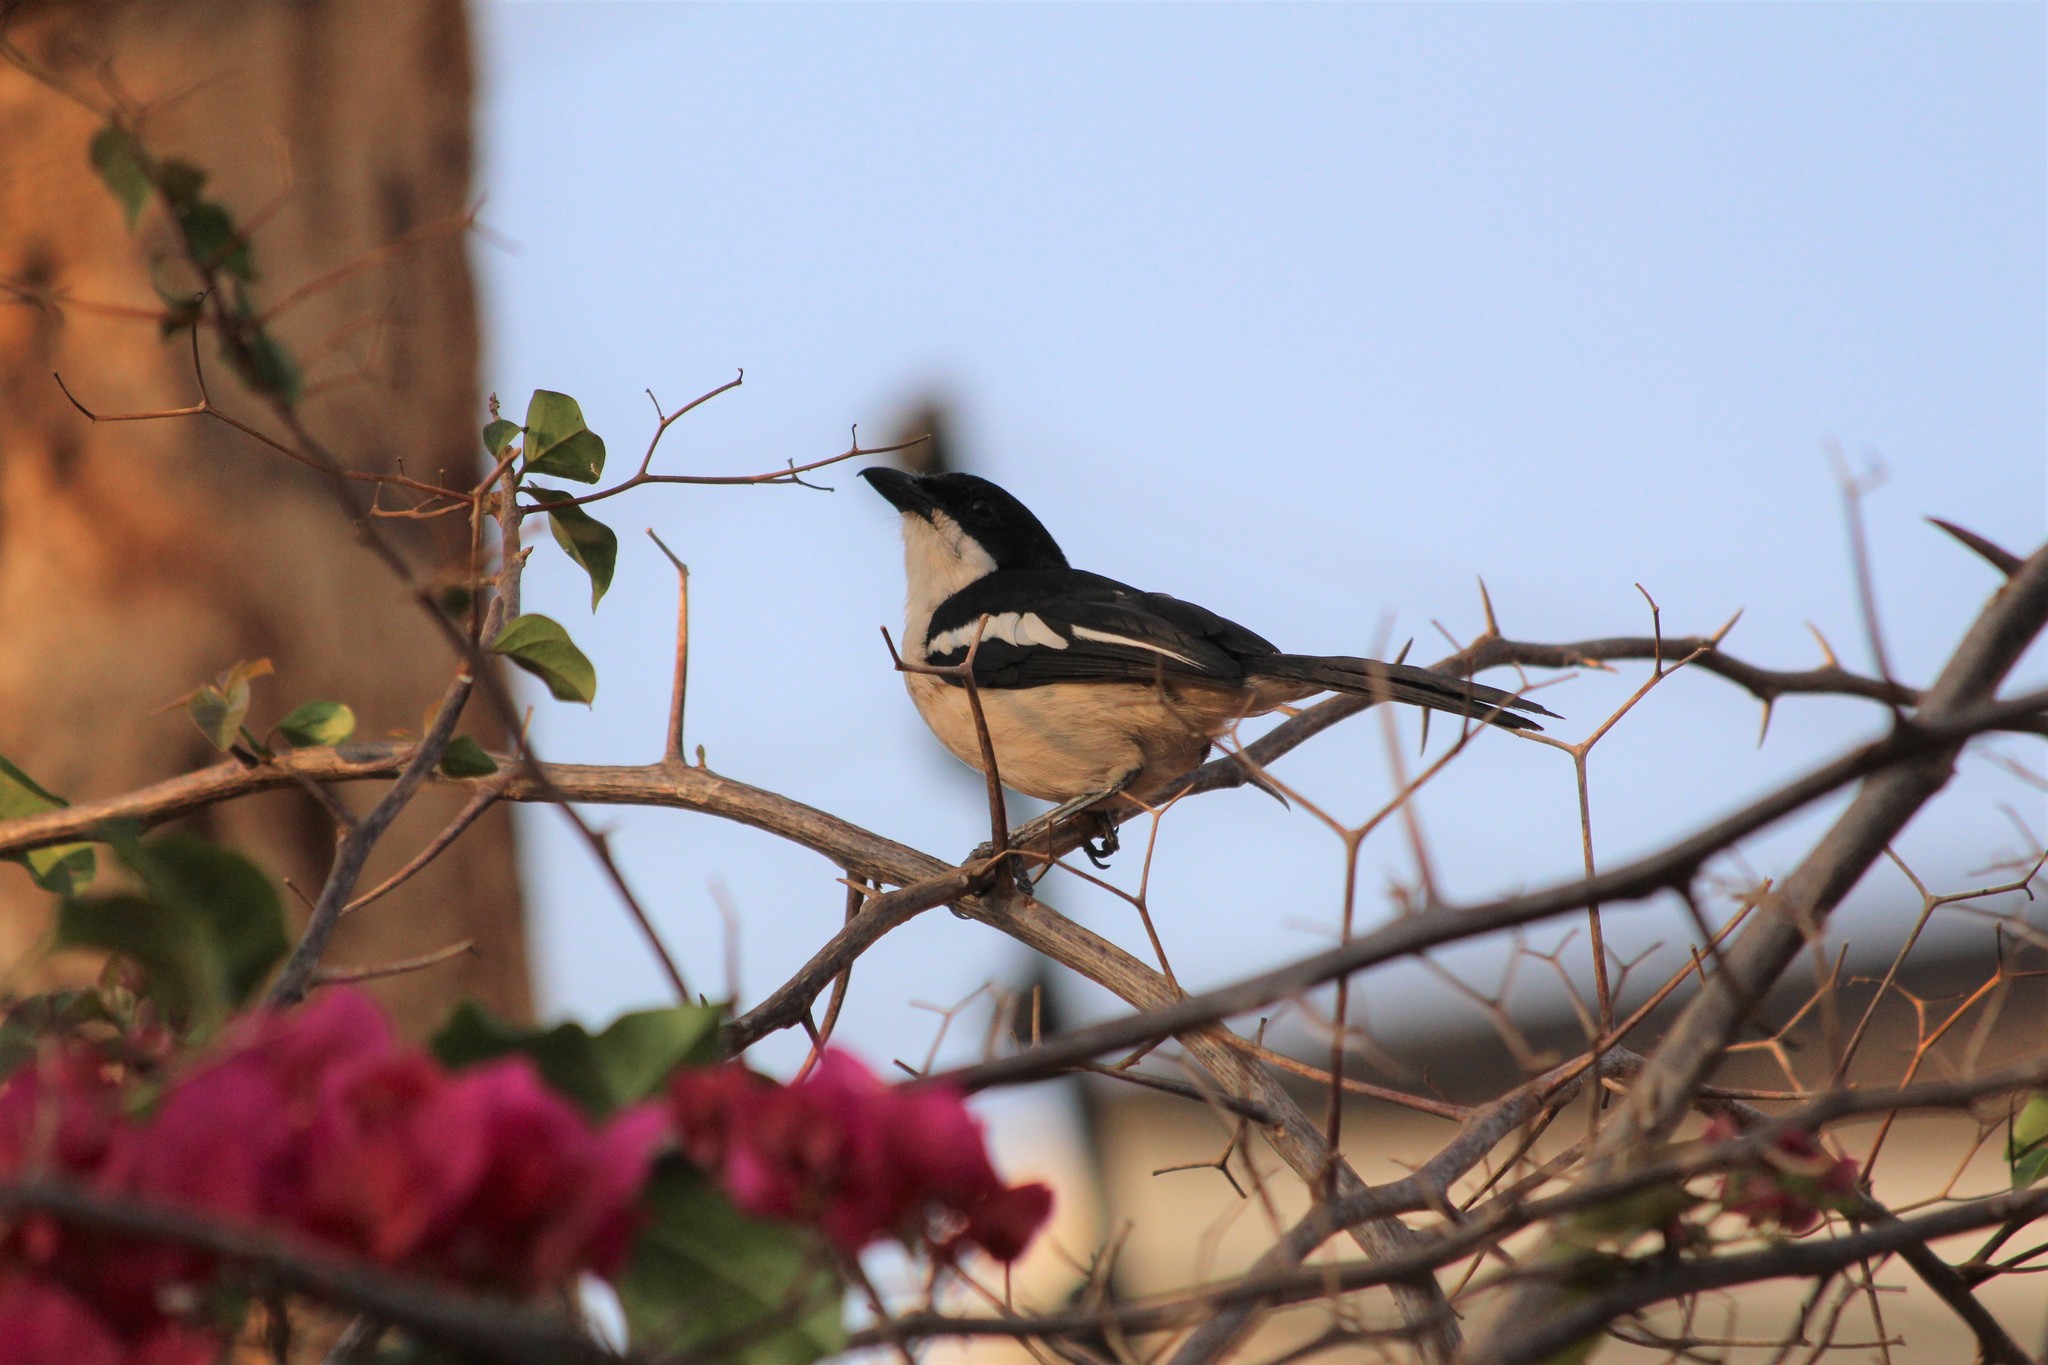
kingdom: Animalia
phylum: Chordata
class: Aves
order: Passeriformes
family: Malaconotidae
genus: Laniarius
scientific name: Laniarius major
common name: Tropical boubou
